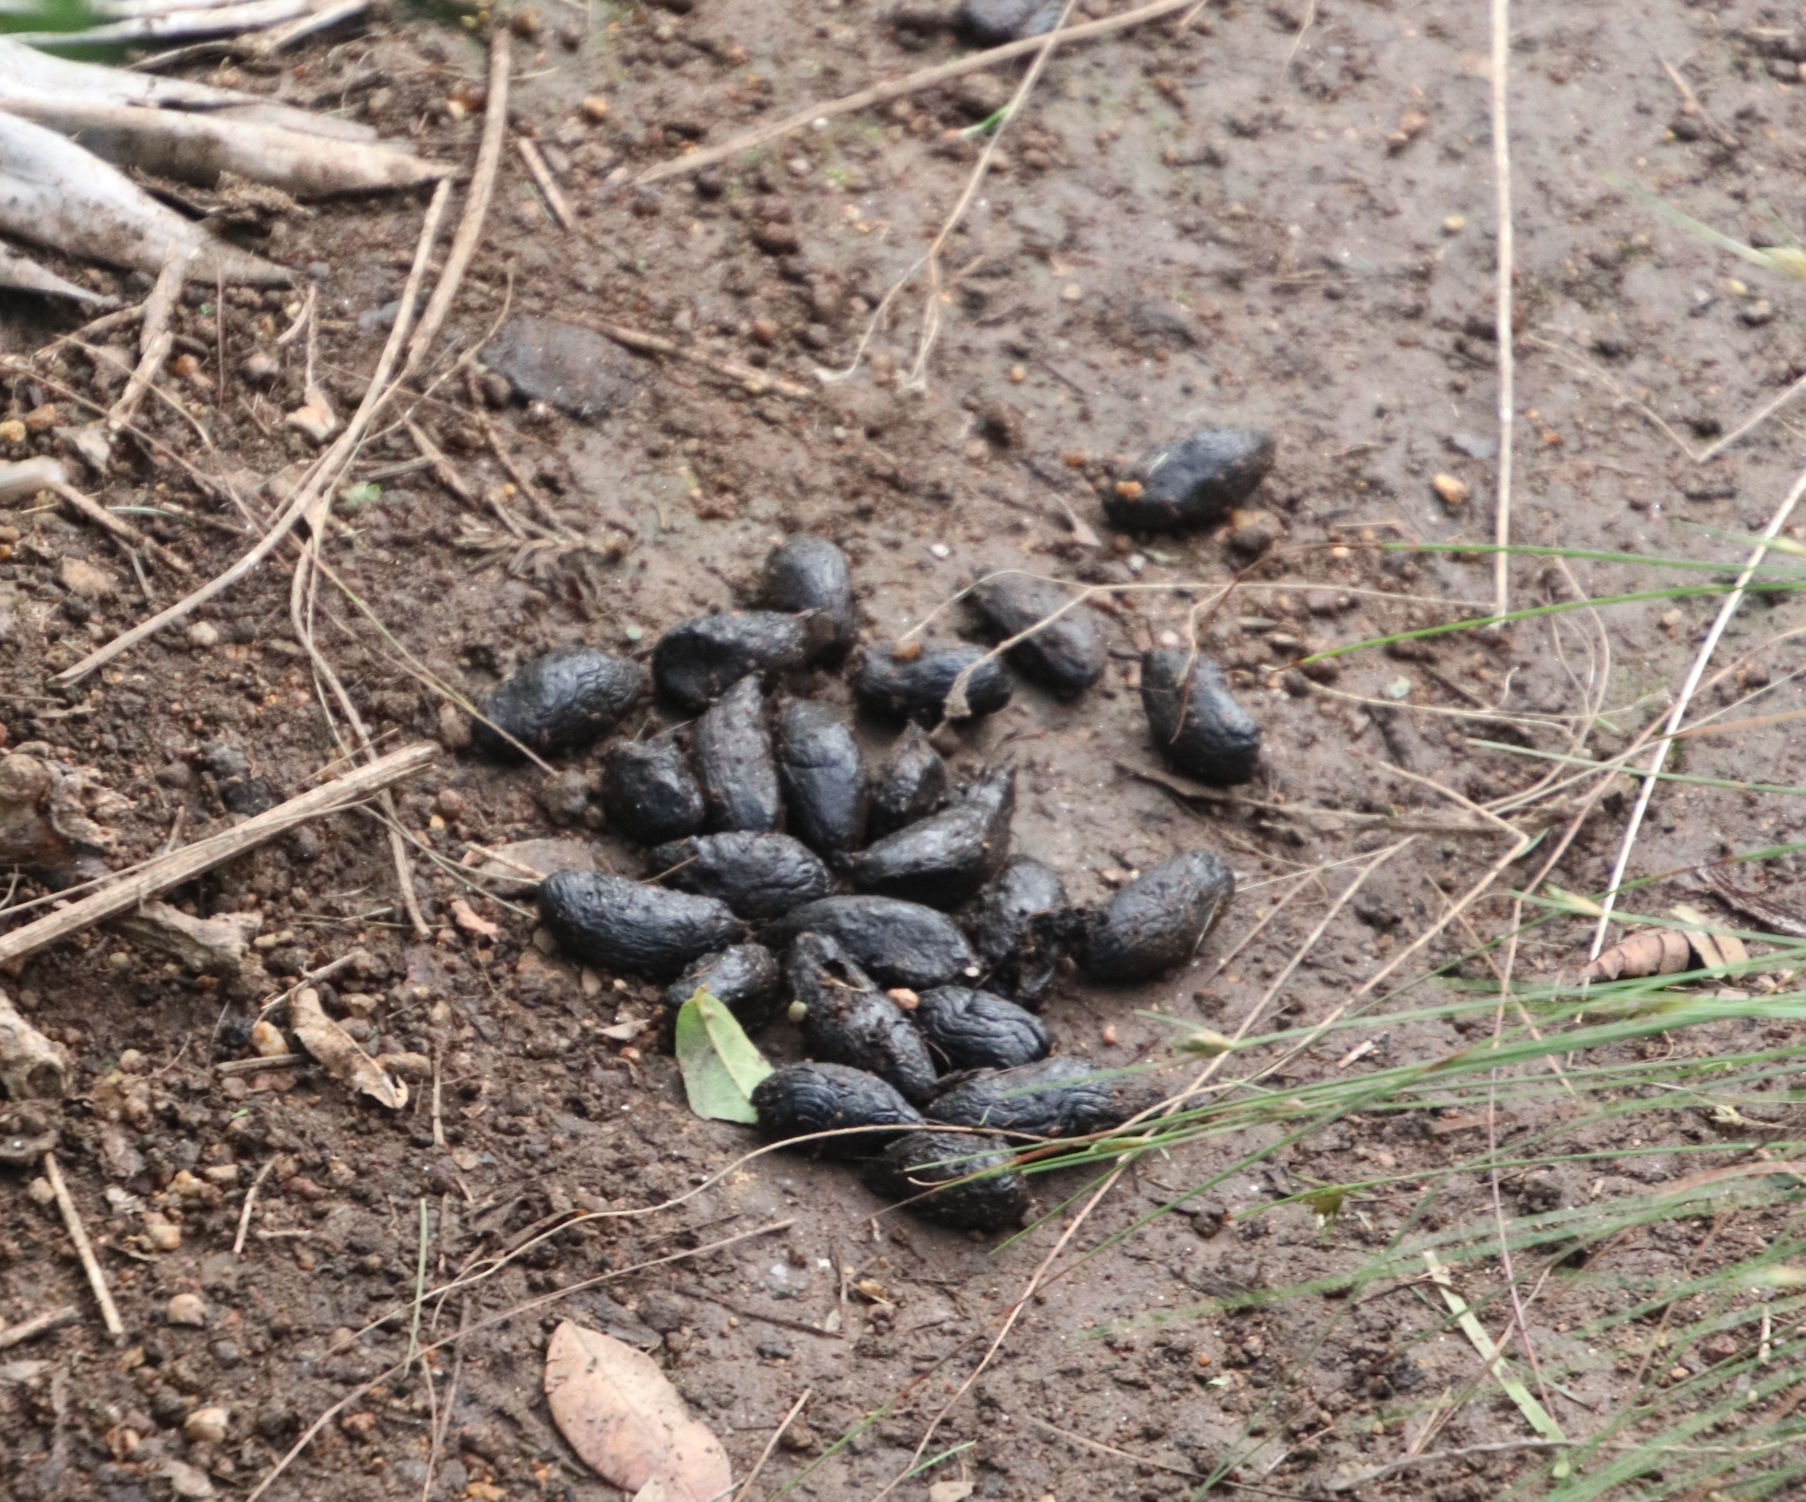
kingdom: Animalia
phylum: Chordata
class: Mammalia
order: Rodentia
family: Hystricidae
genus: Hystrix
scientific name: Hystrix africaeaustralis
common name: Cape porcupine
